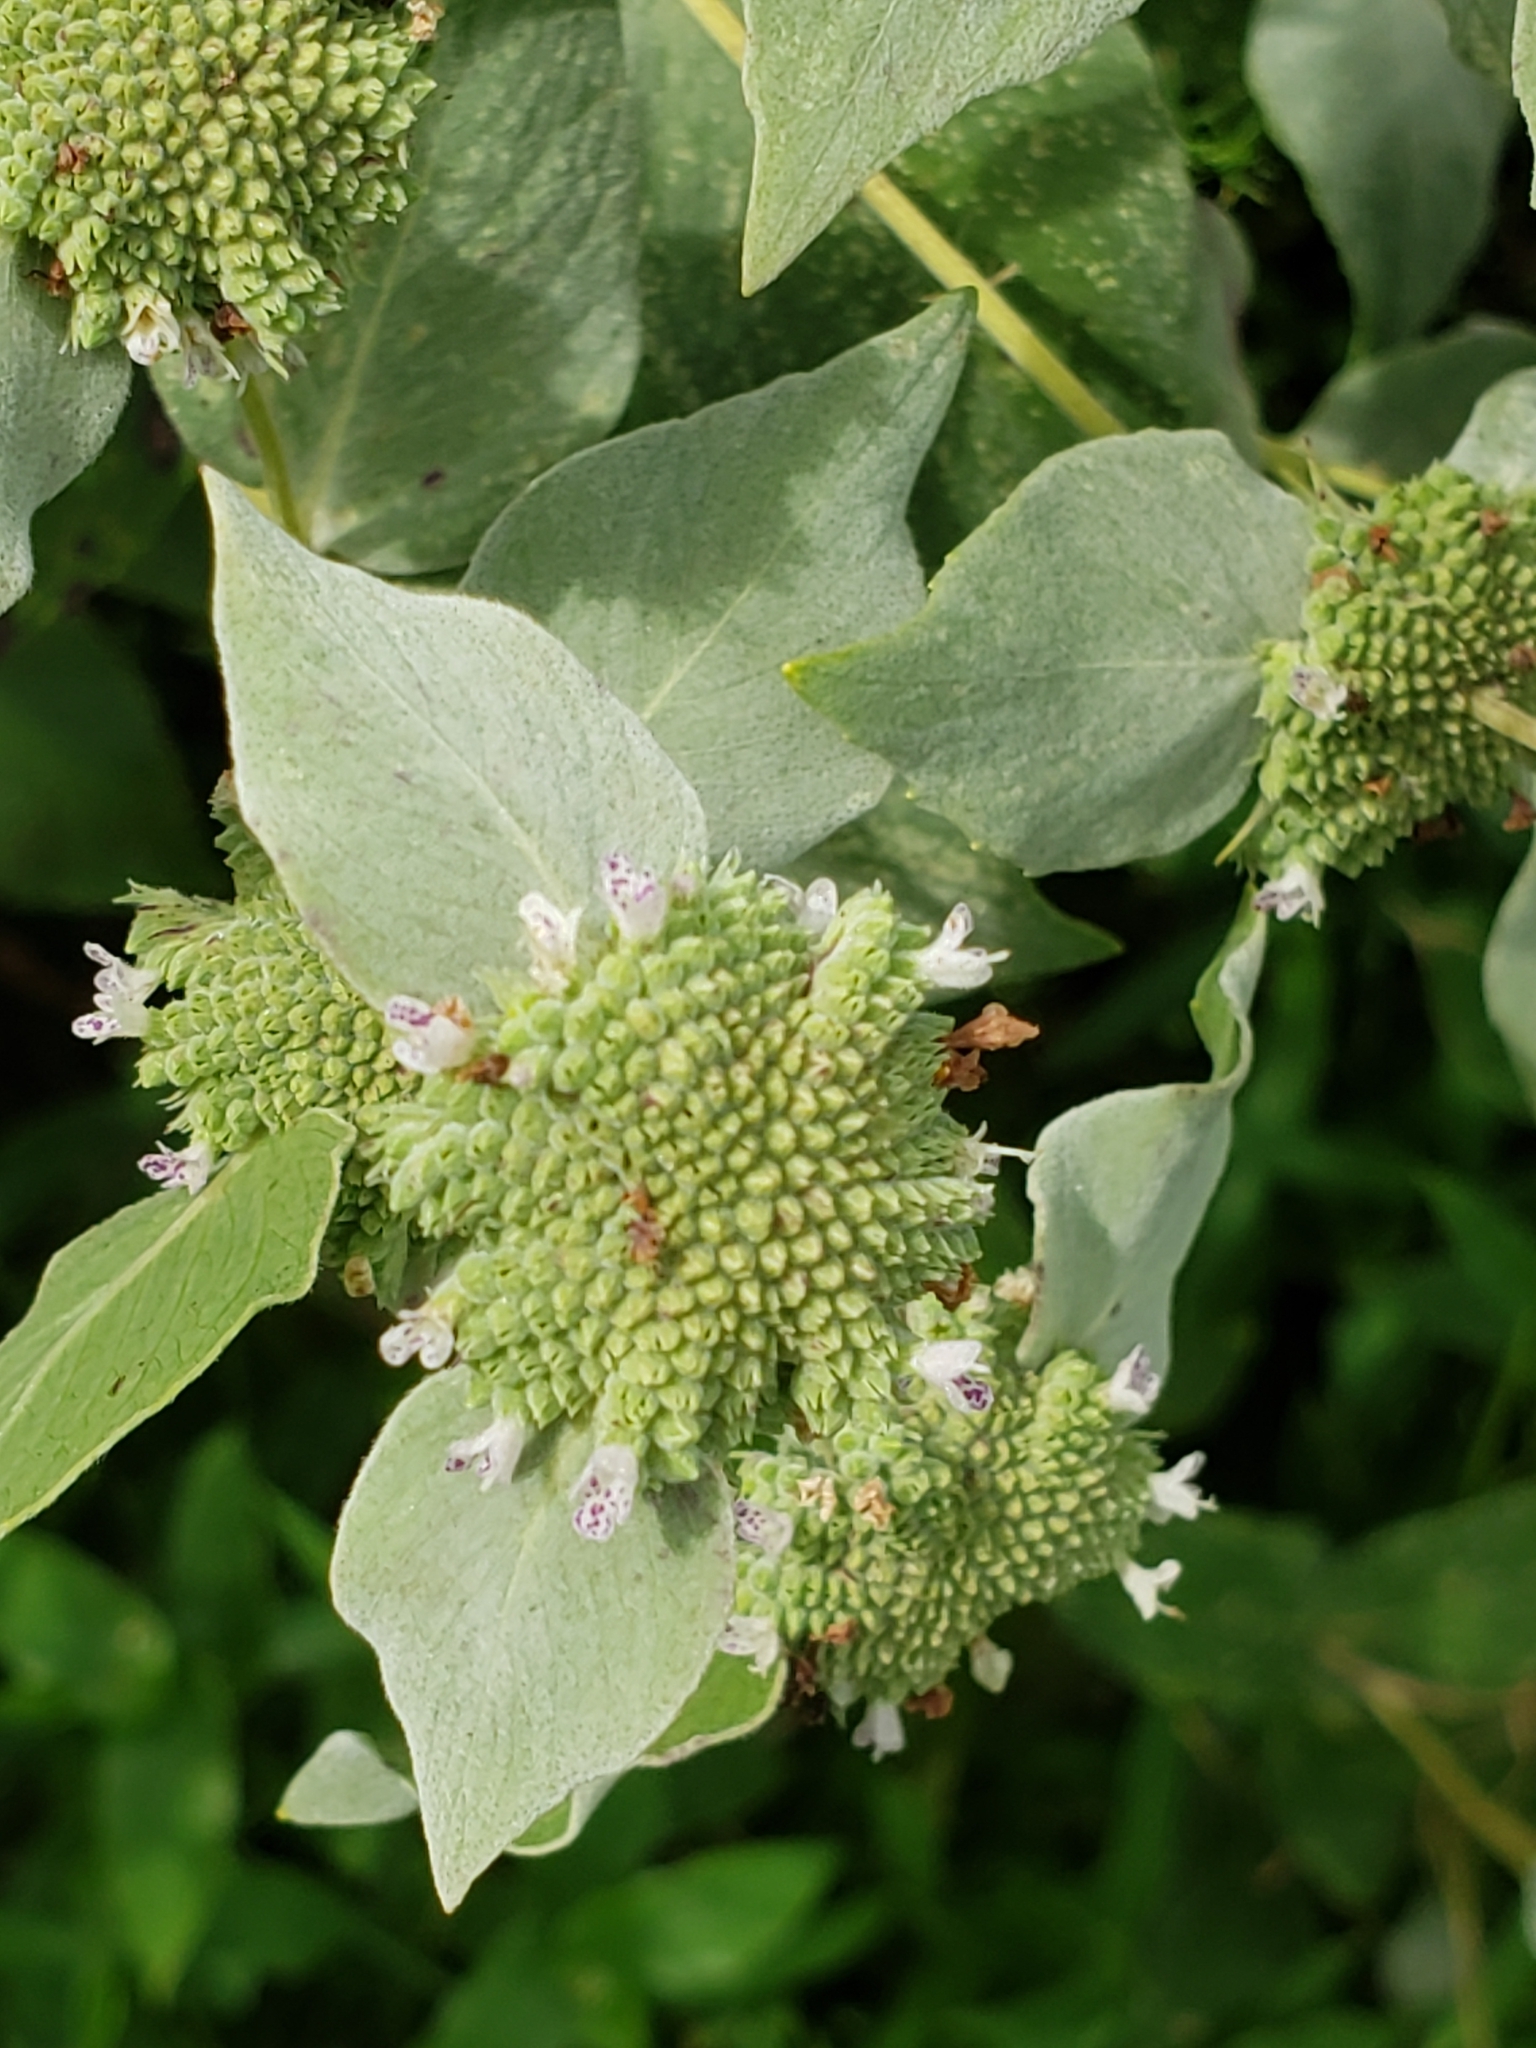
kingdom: Plantae
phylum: Tracheophyta
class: Magnoliopsida
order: Lamiales
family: Lamiaceae
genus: Pycnanthemum
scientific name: Pycnanthemum muticum
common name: Blunt mountain-mint
